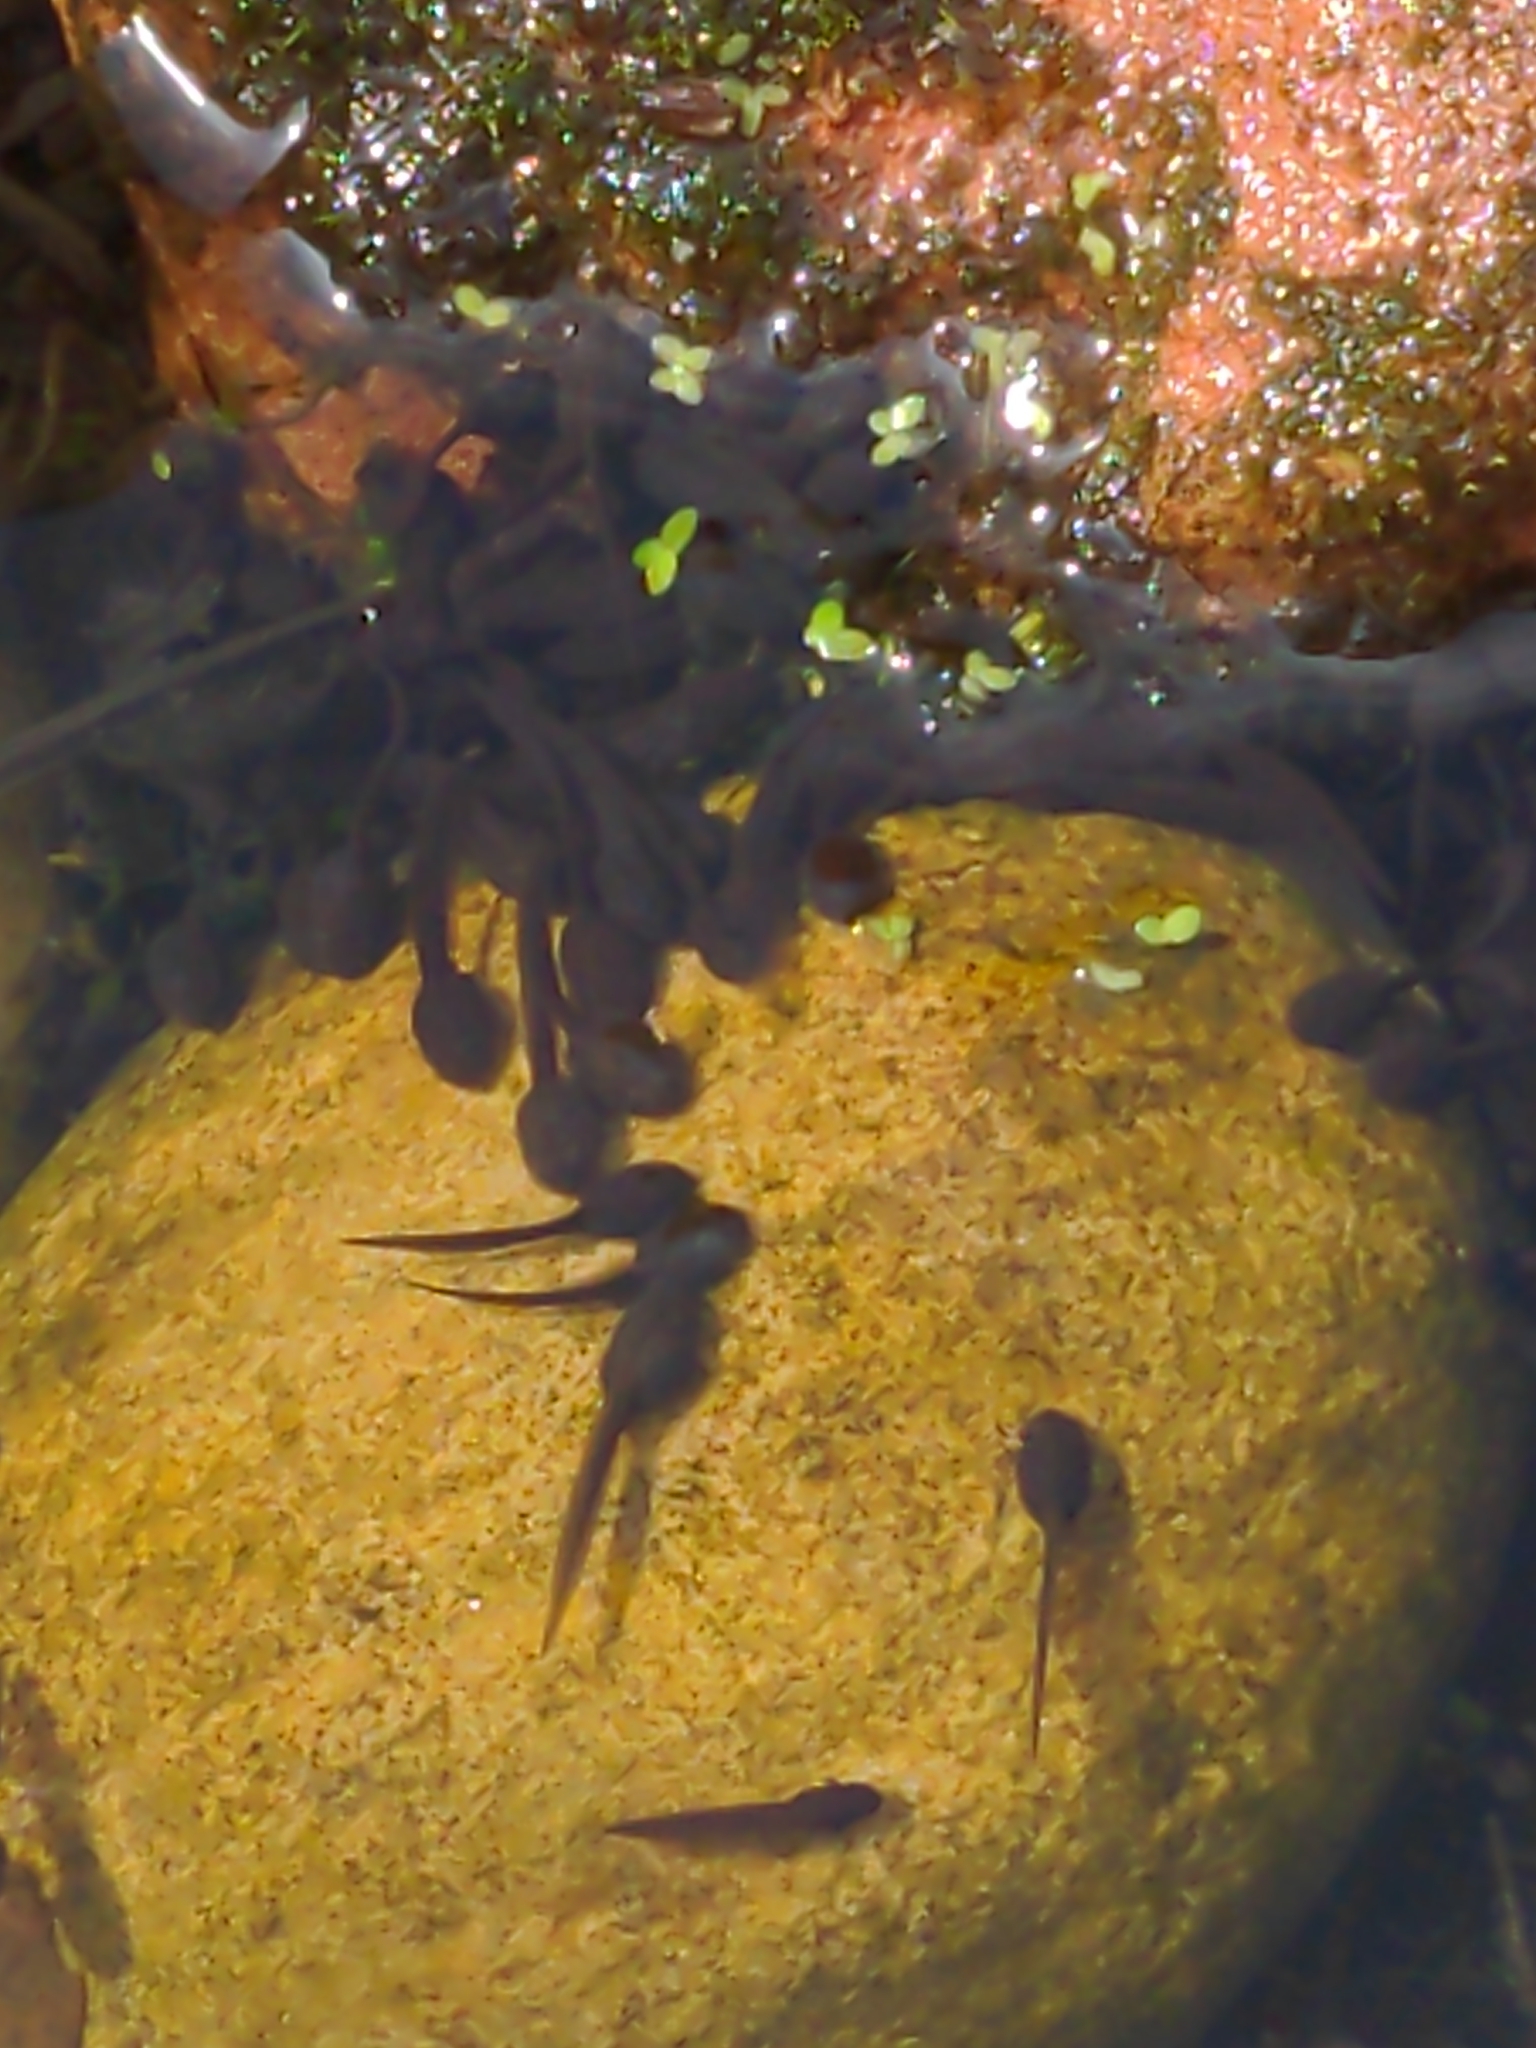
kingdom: Animalia
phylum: Chordata
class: Amphibia
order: Anura
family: Ranidae
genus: Rana
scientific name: Rana temporaria
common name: Common frog
